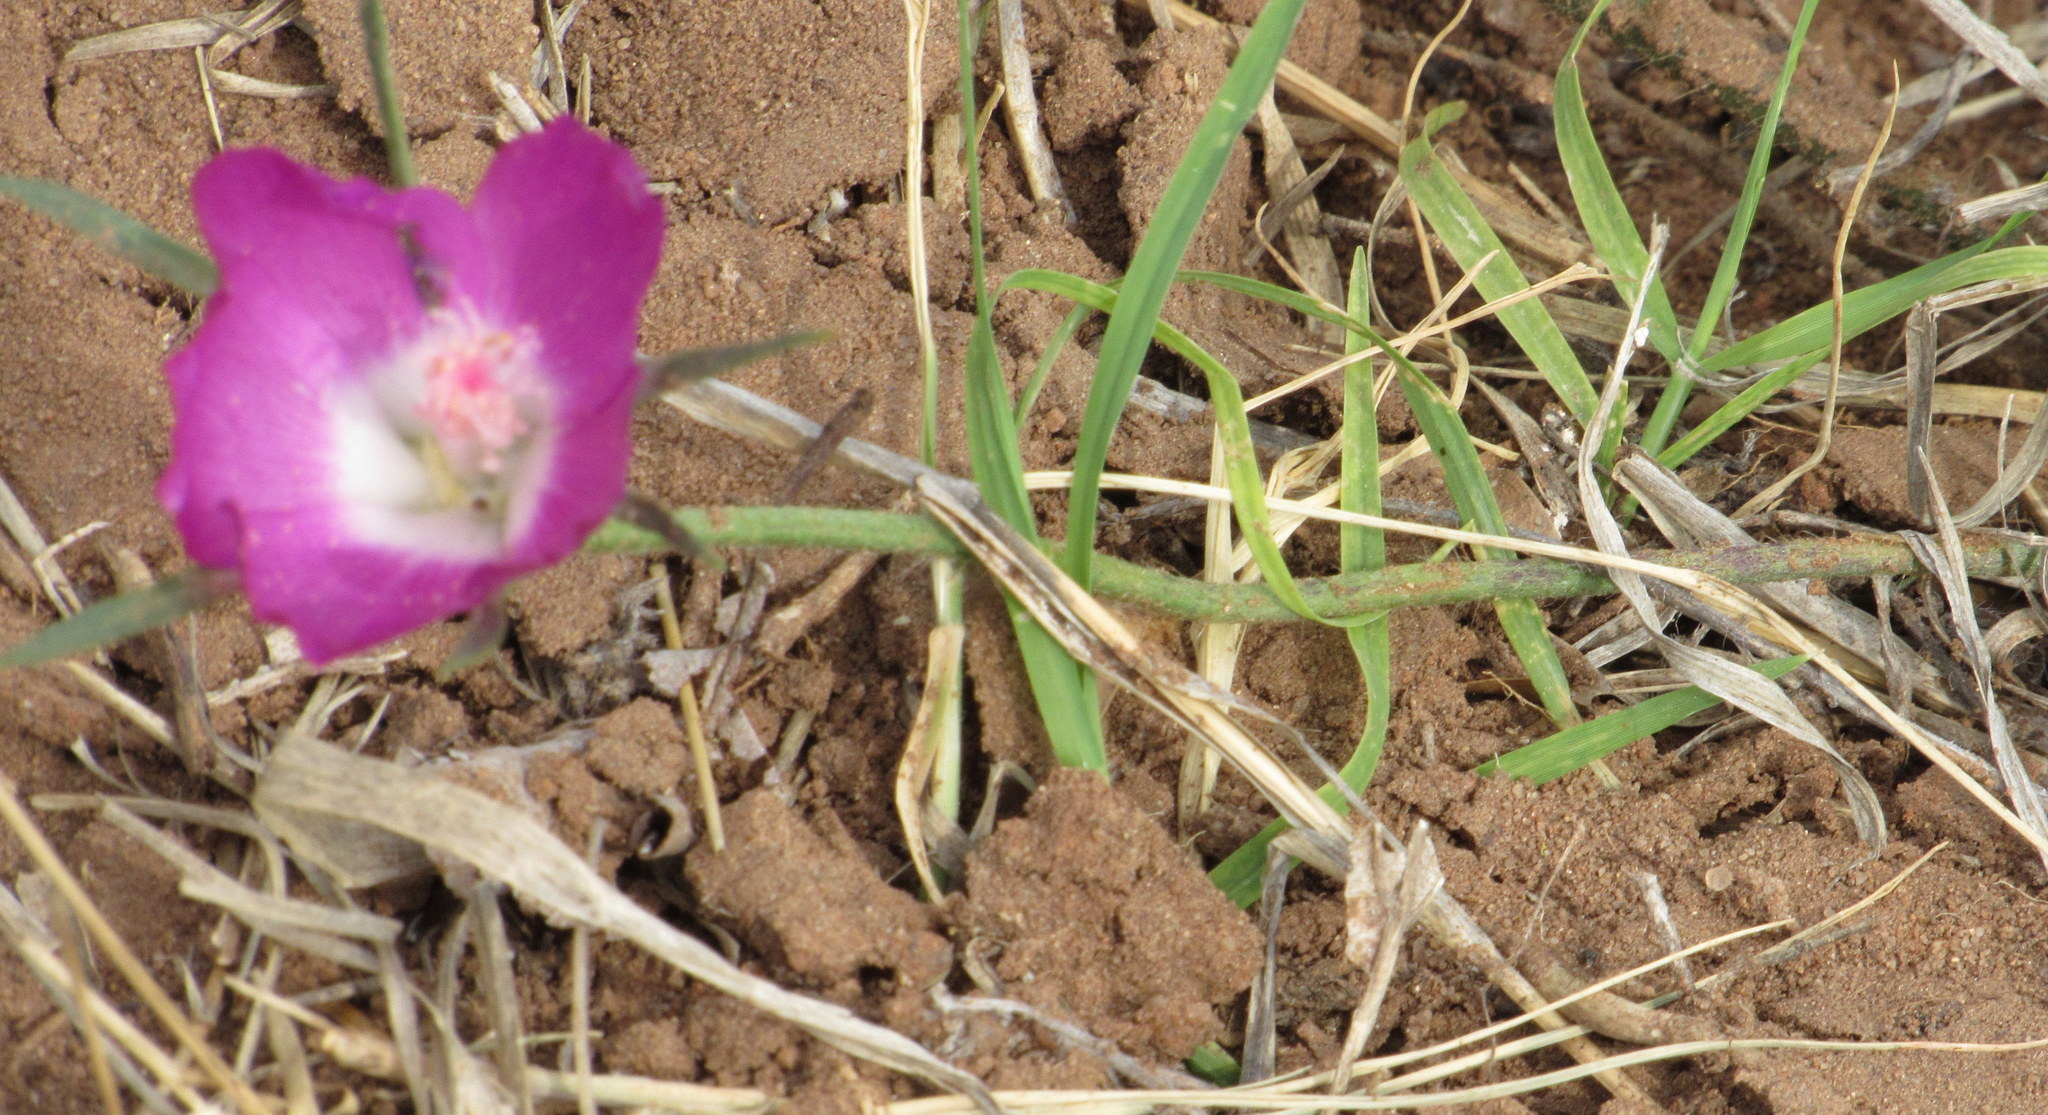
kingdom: Plantae
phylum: Tracheophyta
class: Magnoliopsida
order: Malvales
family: Malvaceae
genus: Callirhoe
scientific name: Callirhoe involucrata
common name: Purple poppy-mallow
